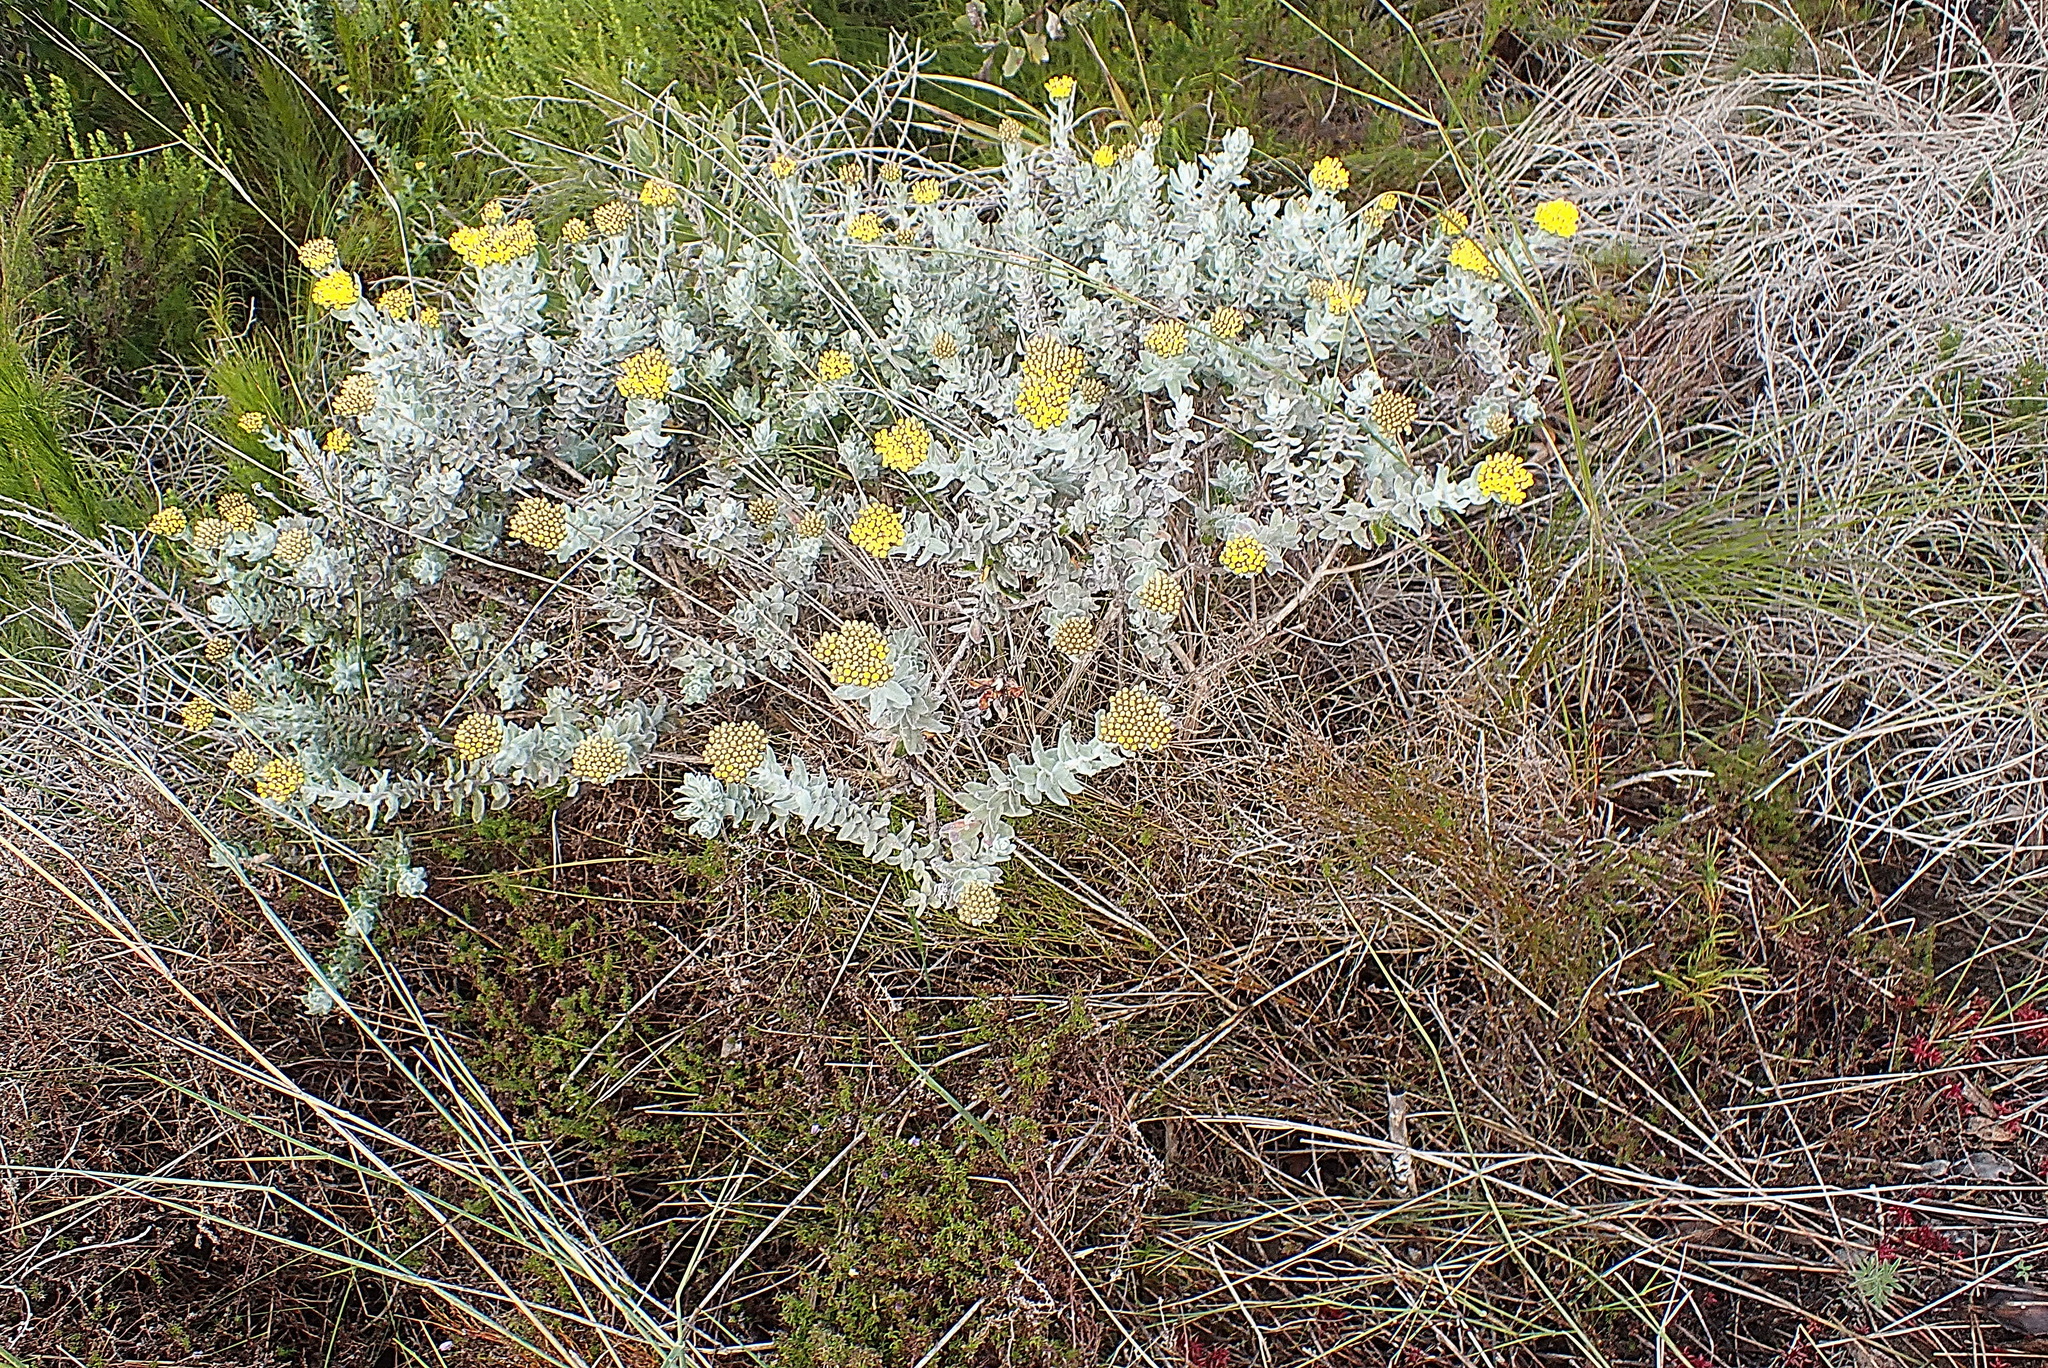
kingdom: Plantae
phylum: Tracheophyta
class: Magnoliopsida
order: Asterales
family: Asteraceae
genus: Helichrysum
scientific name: Helichrysum dasyanthum
